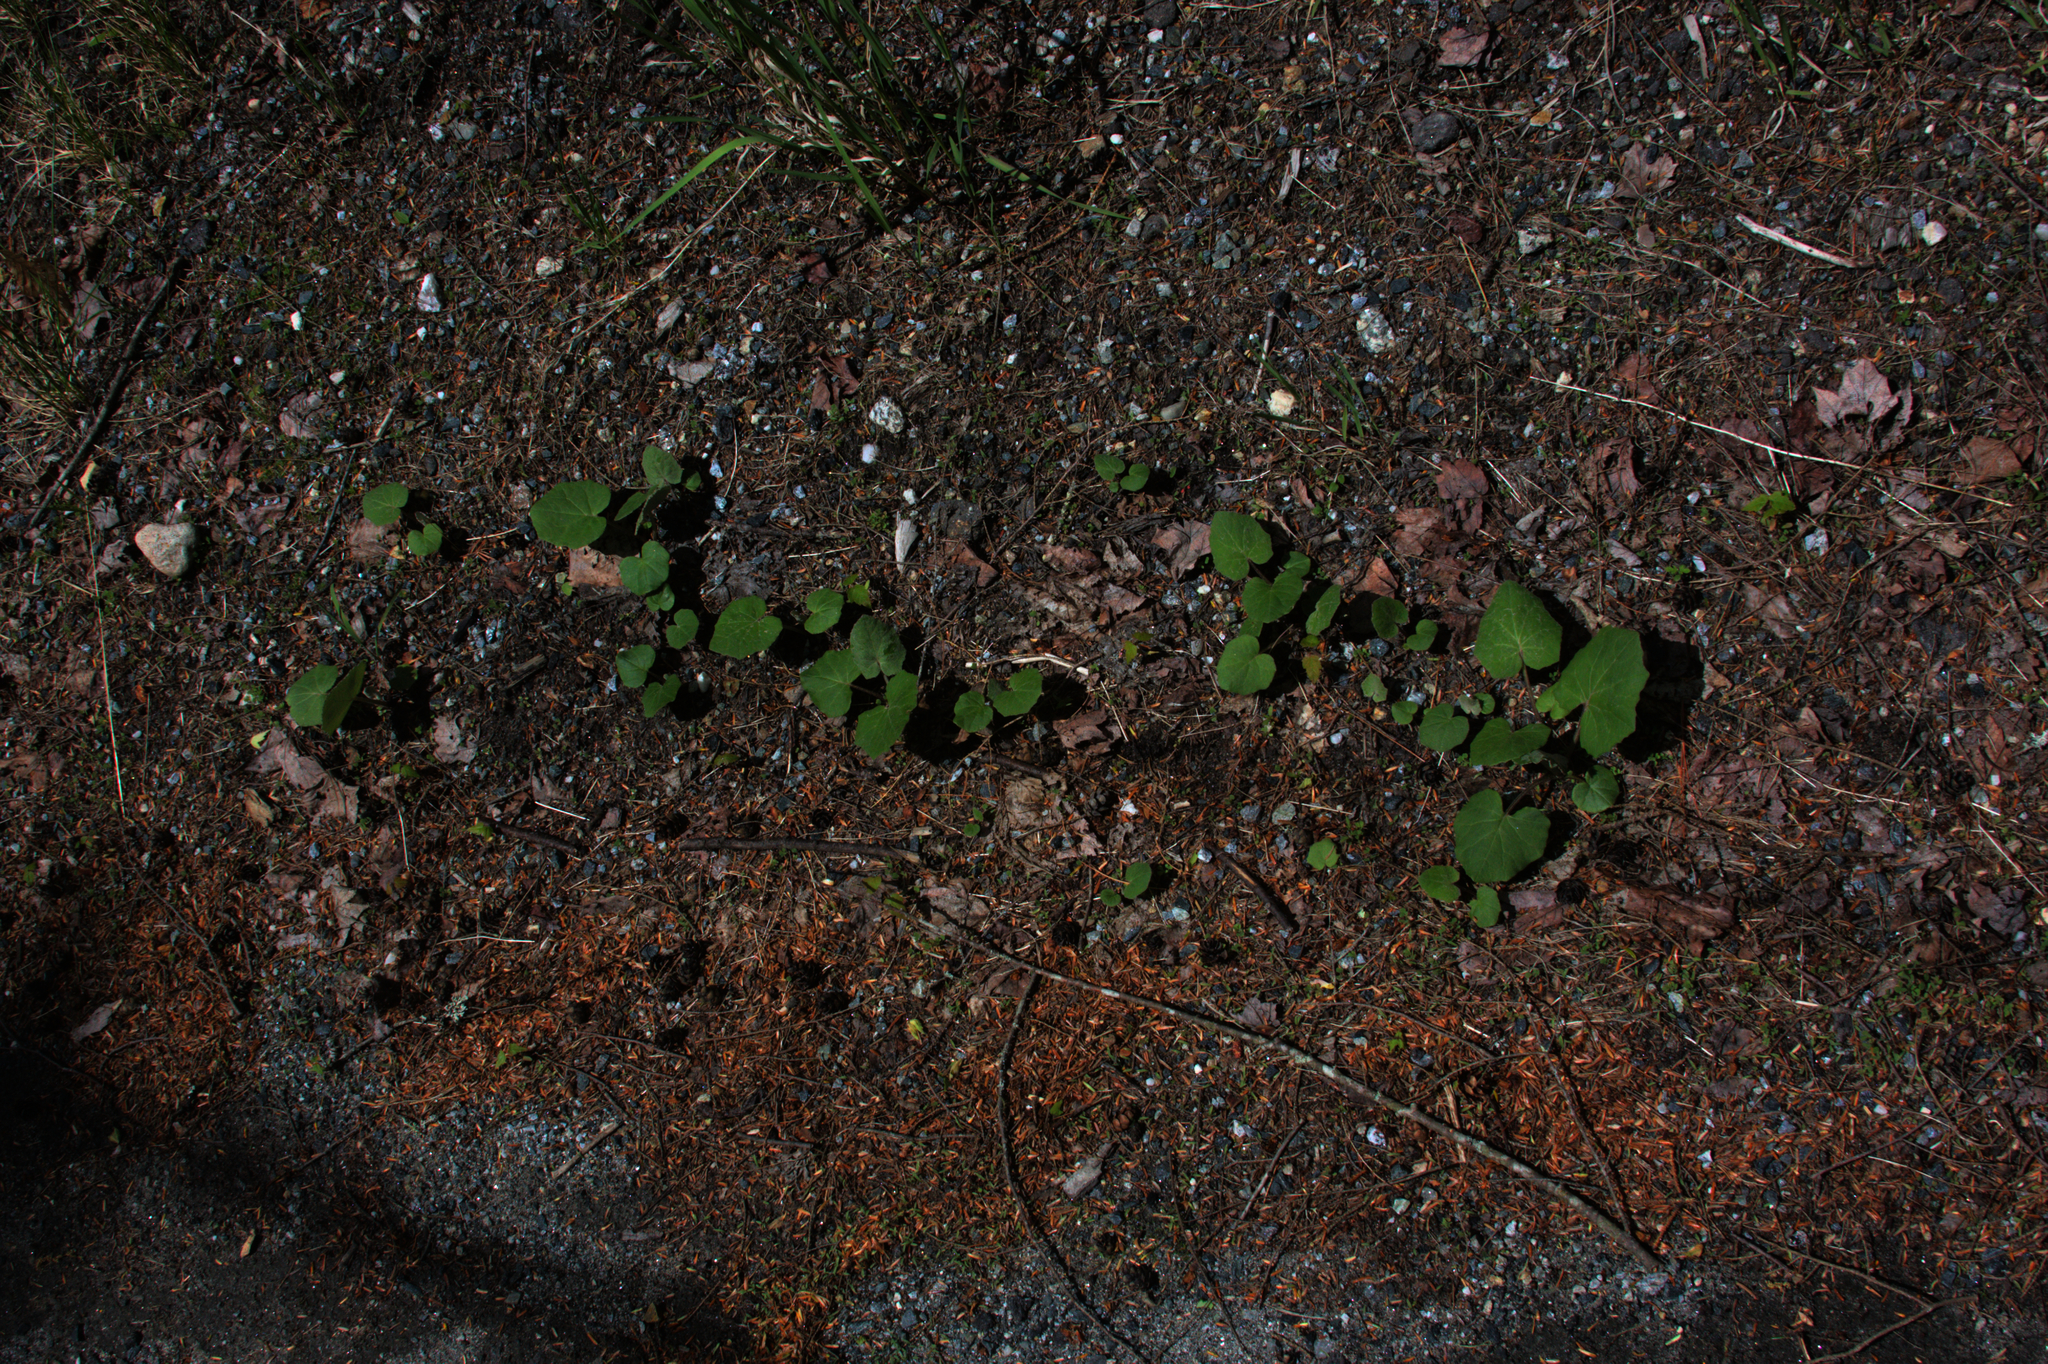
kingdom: Plantae
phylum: Tracheophyta
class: Magnoliopsida
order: Asterales
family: Asteraceae
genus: Tussilago
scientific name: Tussilago farfara
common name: Coltsfoot
